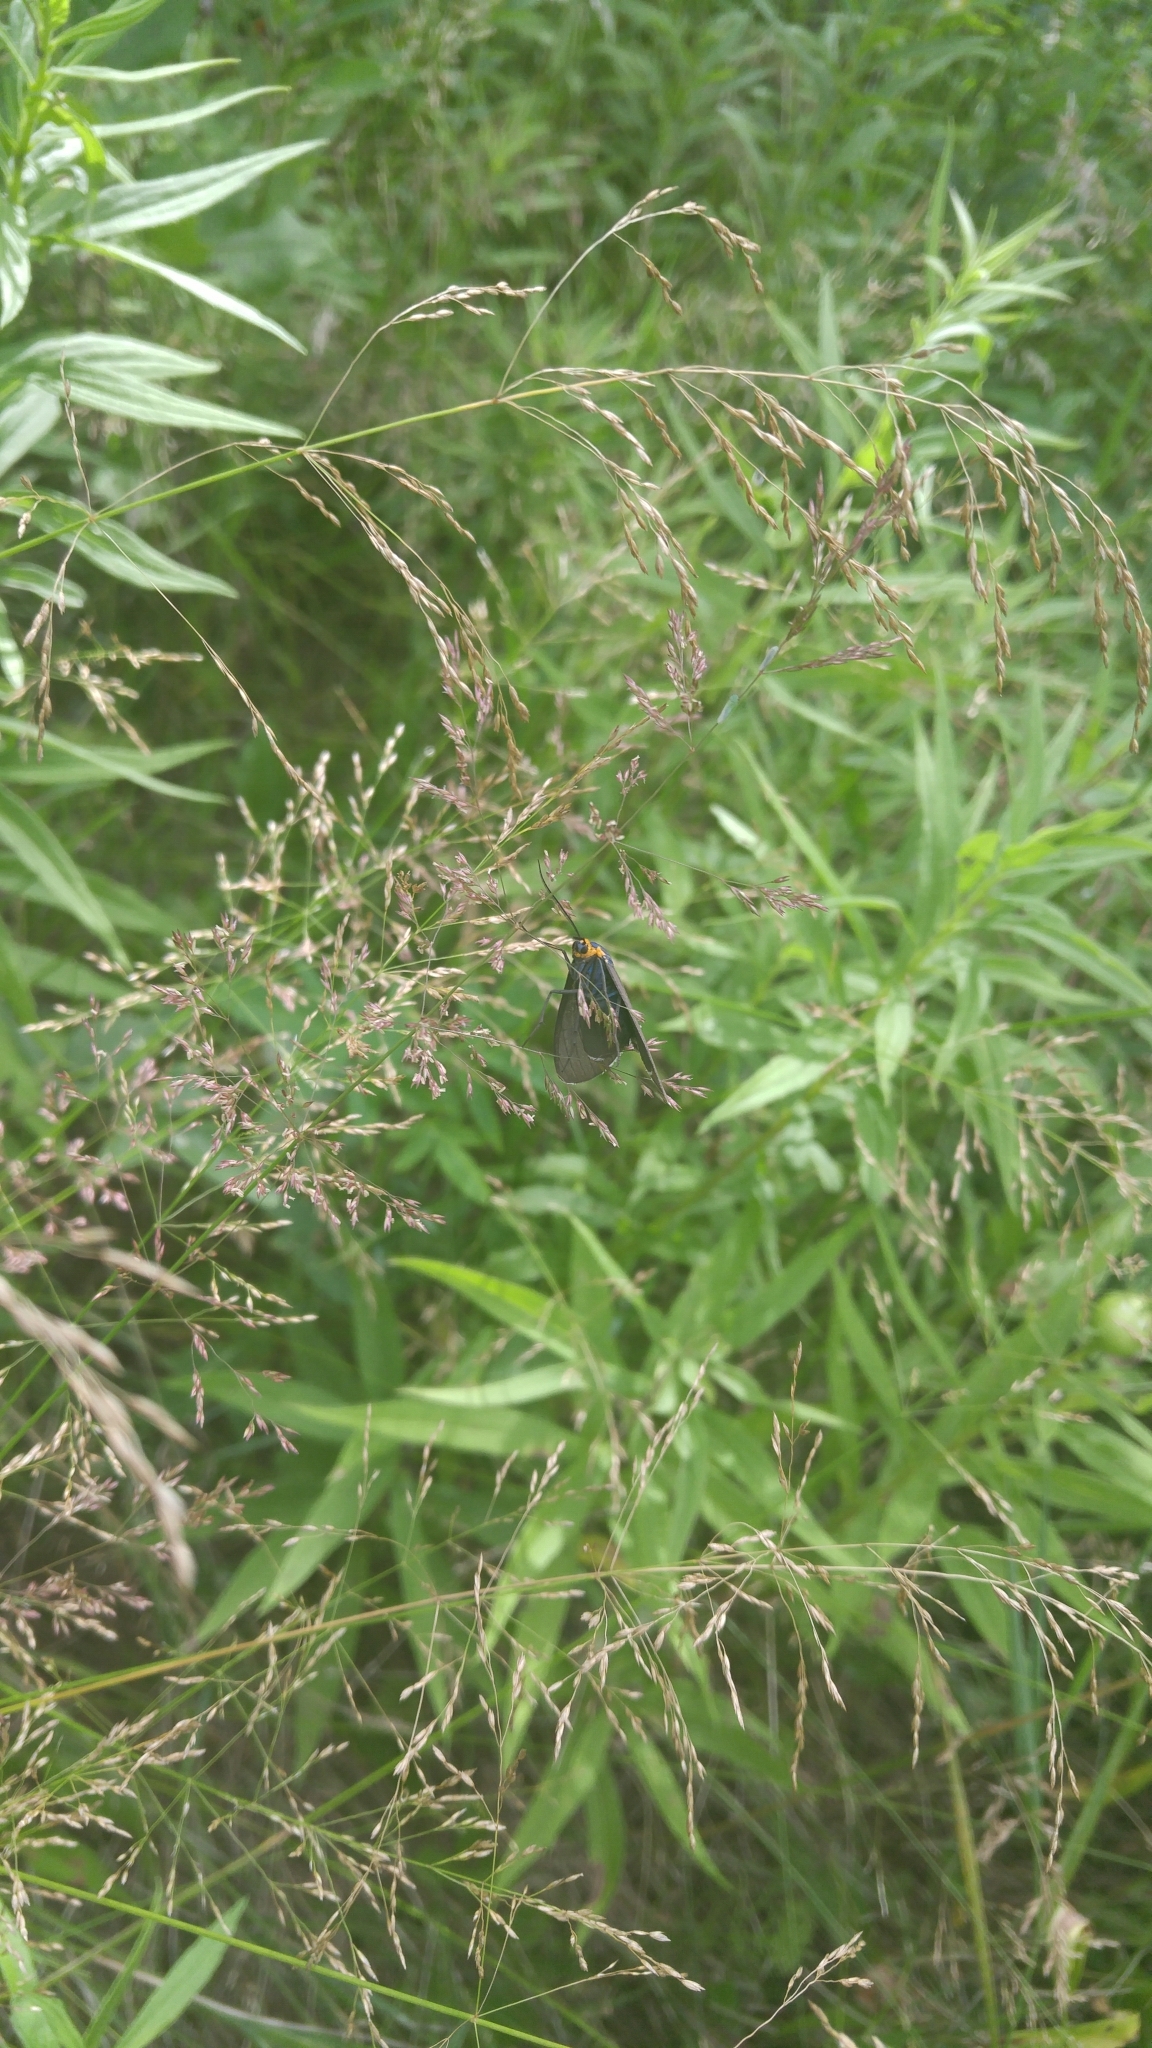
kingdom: Animalia
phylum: Arthropoda
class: Insecta
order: Lepidoptera
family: Erebidae
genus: Ctenucha
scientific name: Ctenucha virginica
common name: Virginia ctenucha moth
